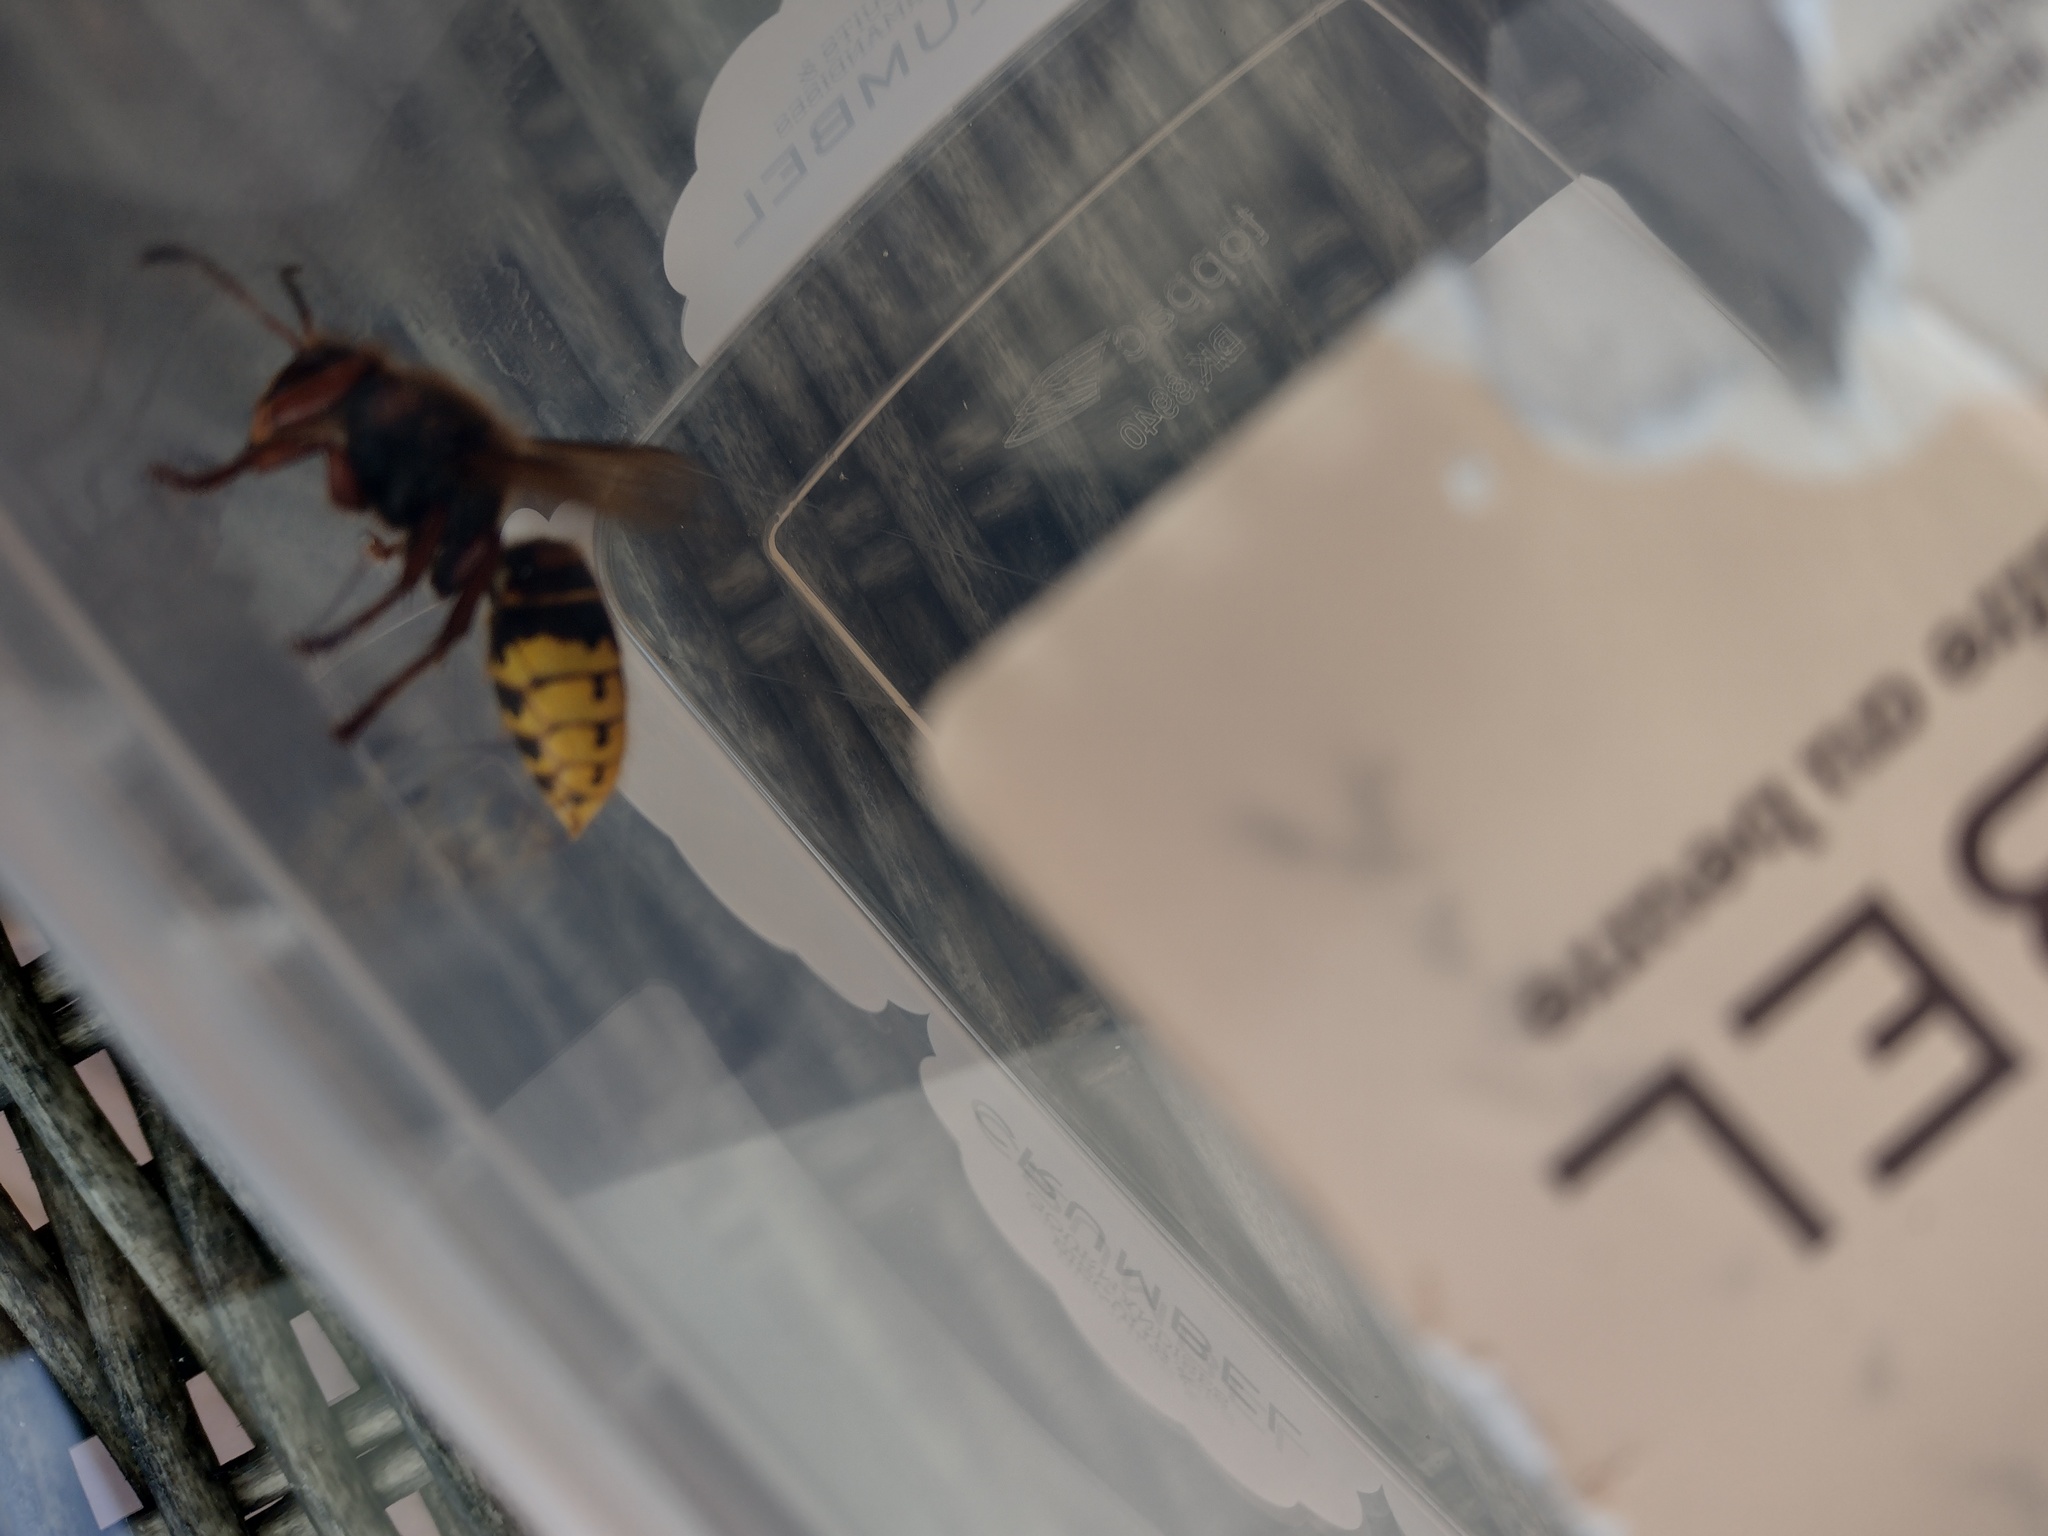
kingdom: Animalia
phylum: Arthropoda
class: Insecta
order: Hymenoptera
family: Vespidae
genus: Vespa
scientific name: Vespa crabro
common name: Hornet
